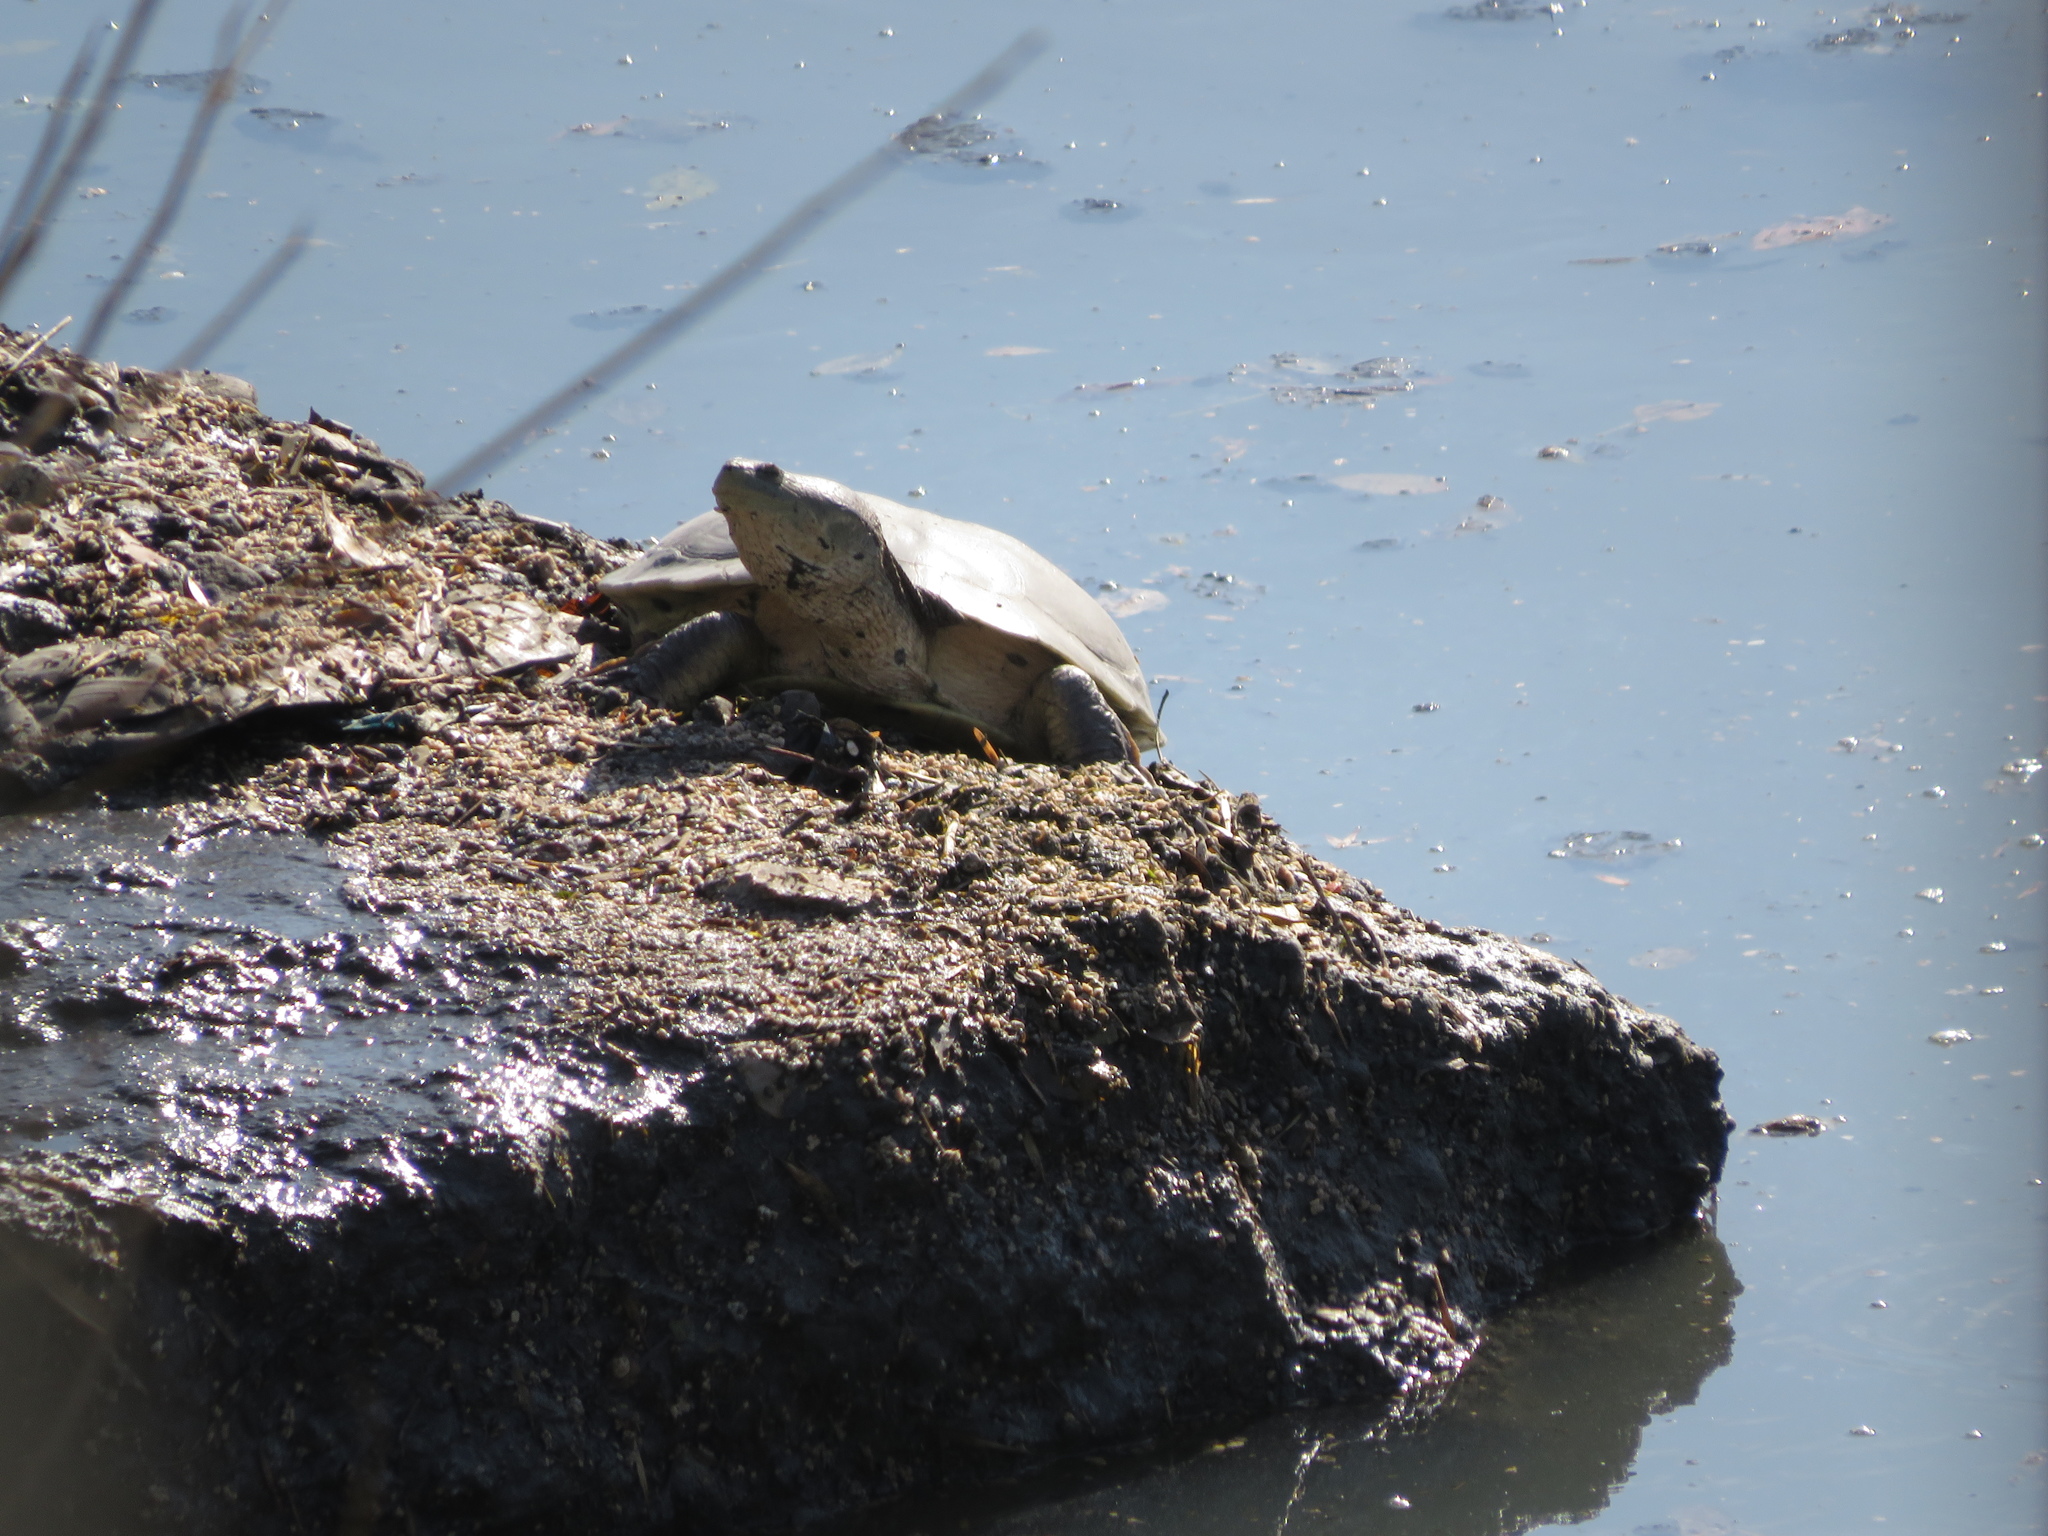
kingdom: Animalia
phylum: Chordata
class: Testudines
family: Chelidae
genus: Phrynops
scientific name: Phrynops hilarii
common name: Side-necked turtle of saint hillaire
